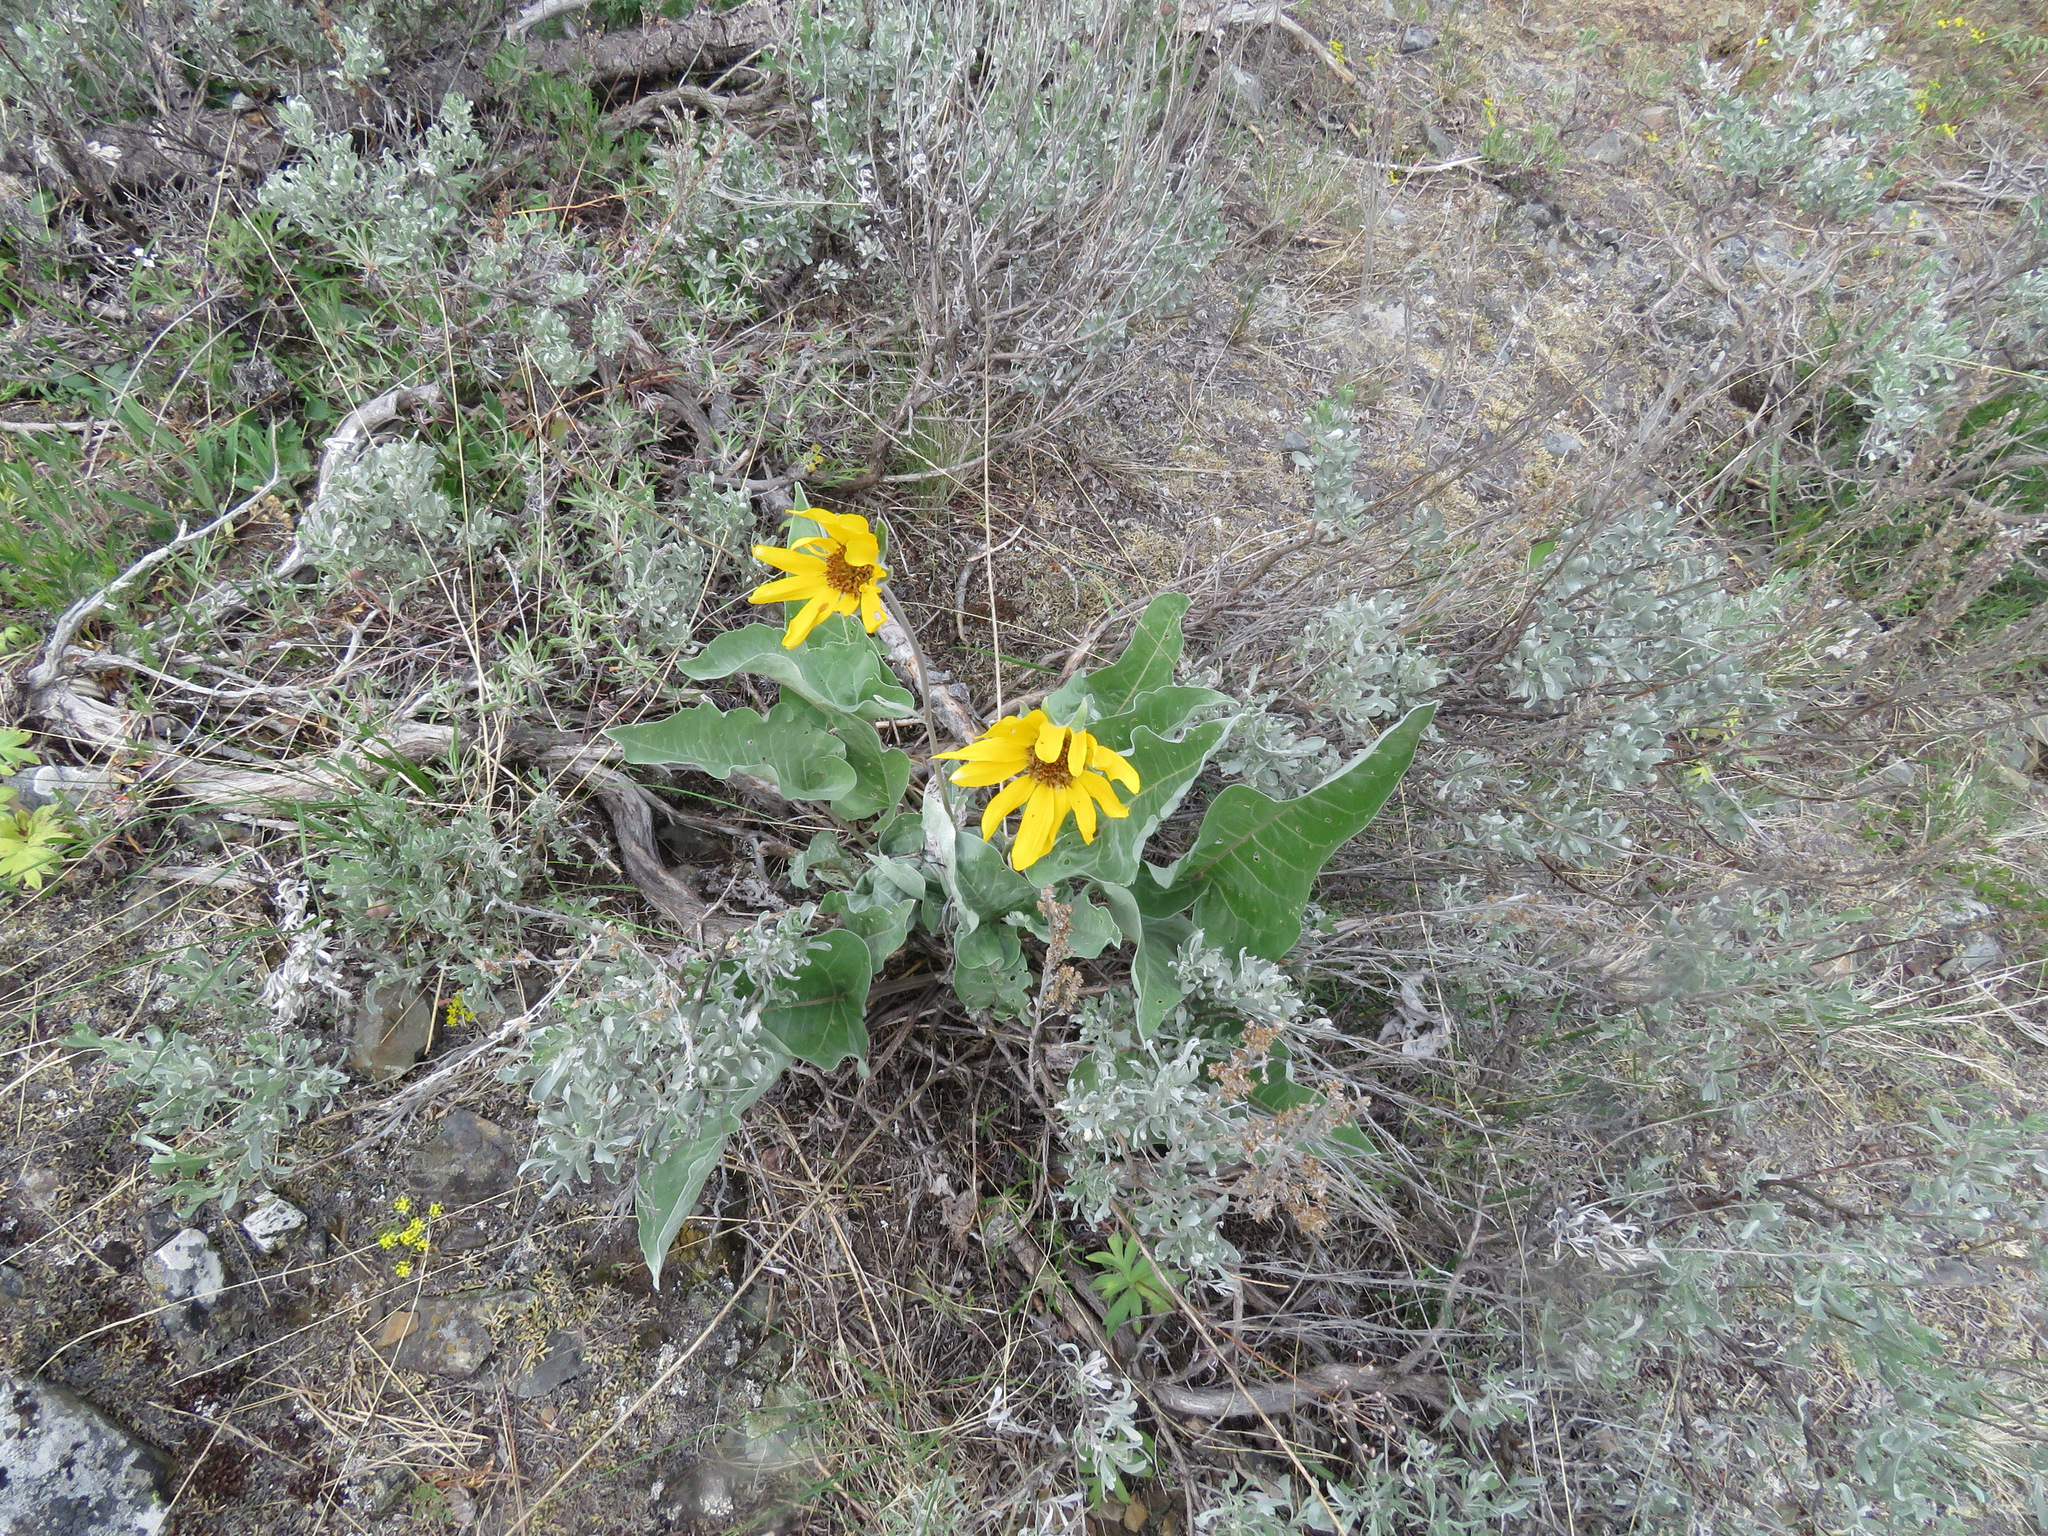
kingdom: Plantae
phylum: Tracheophyta
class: Magnoliopsida
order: Asterales
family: Asteraceae
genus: Wyethia
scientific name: Wyethia sagittata
